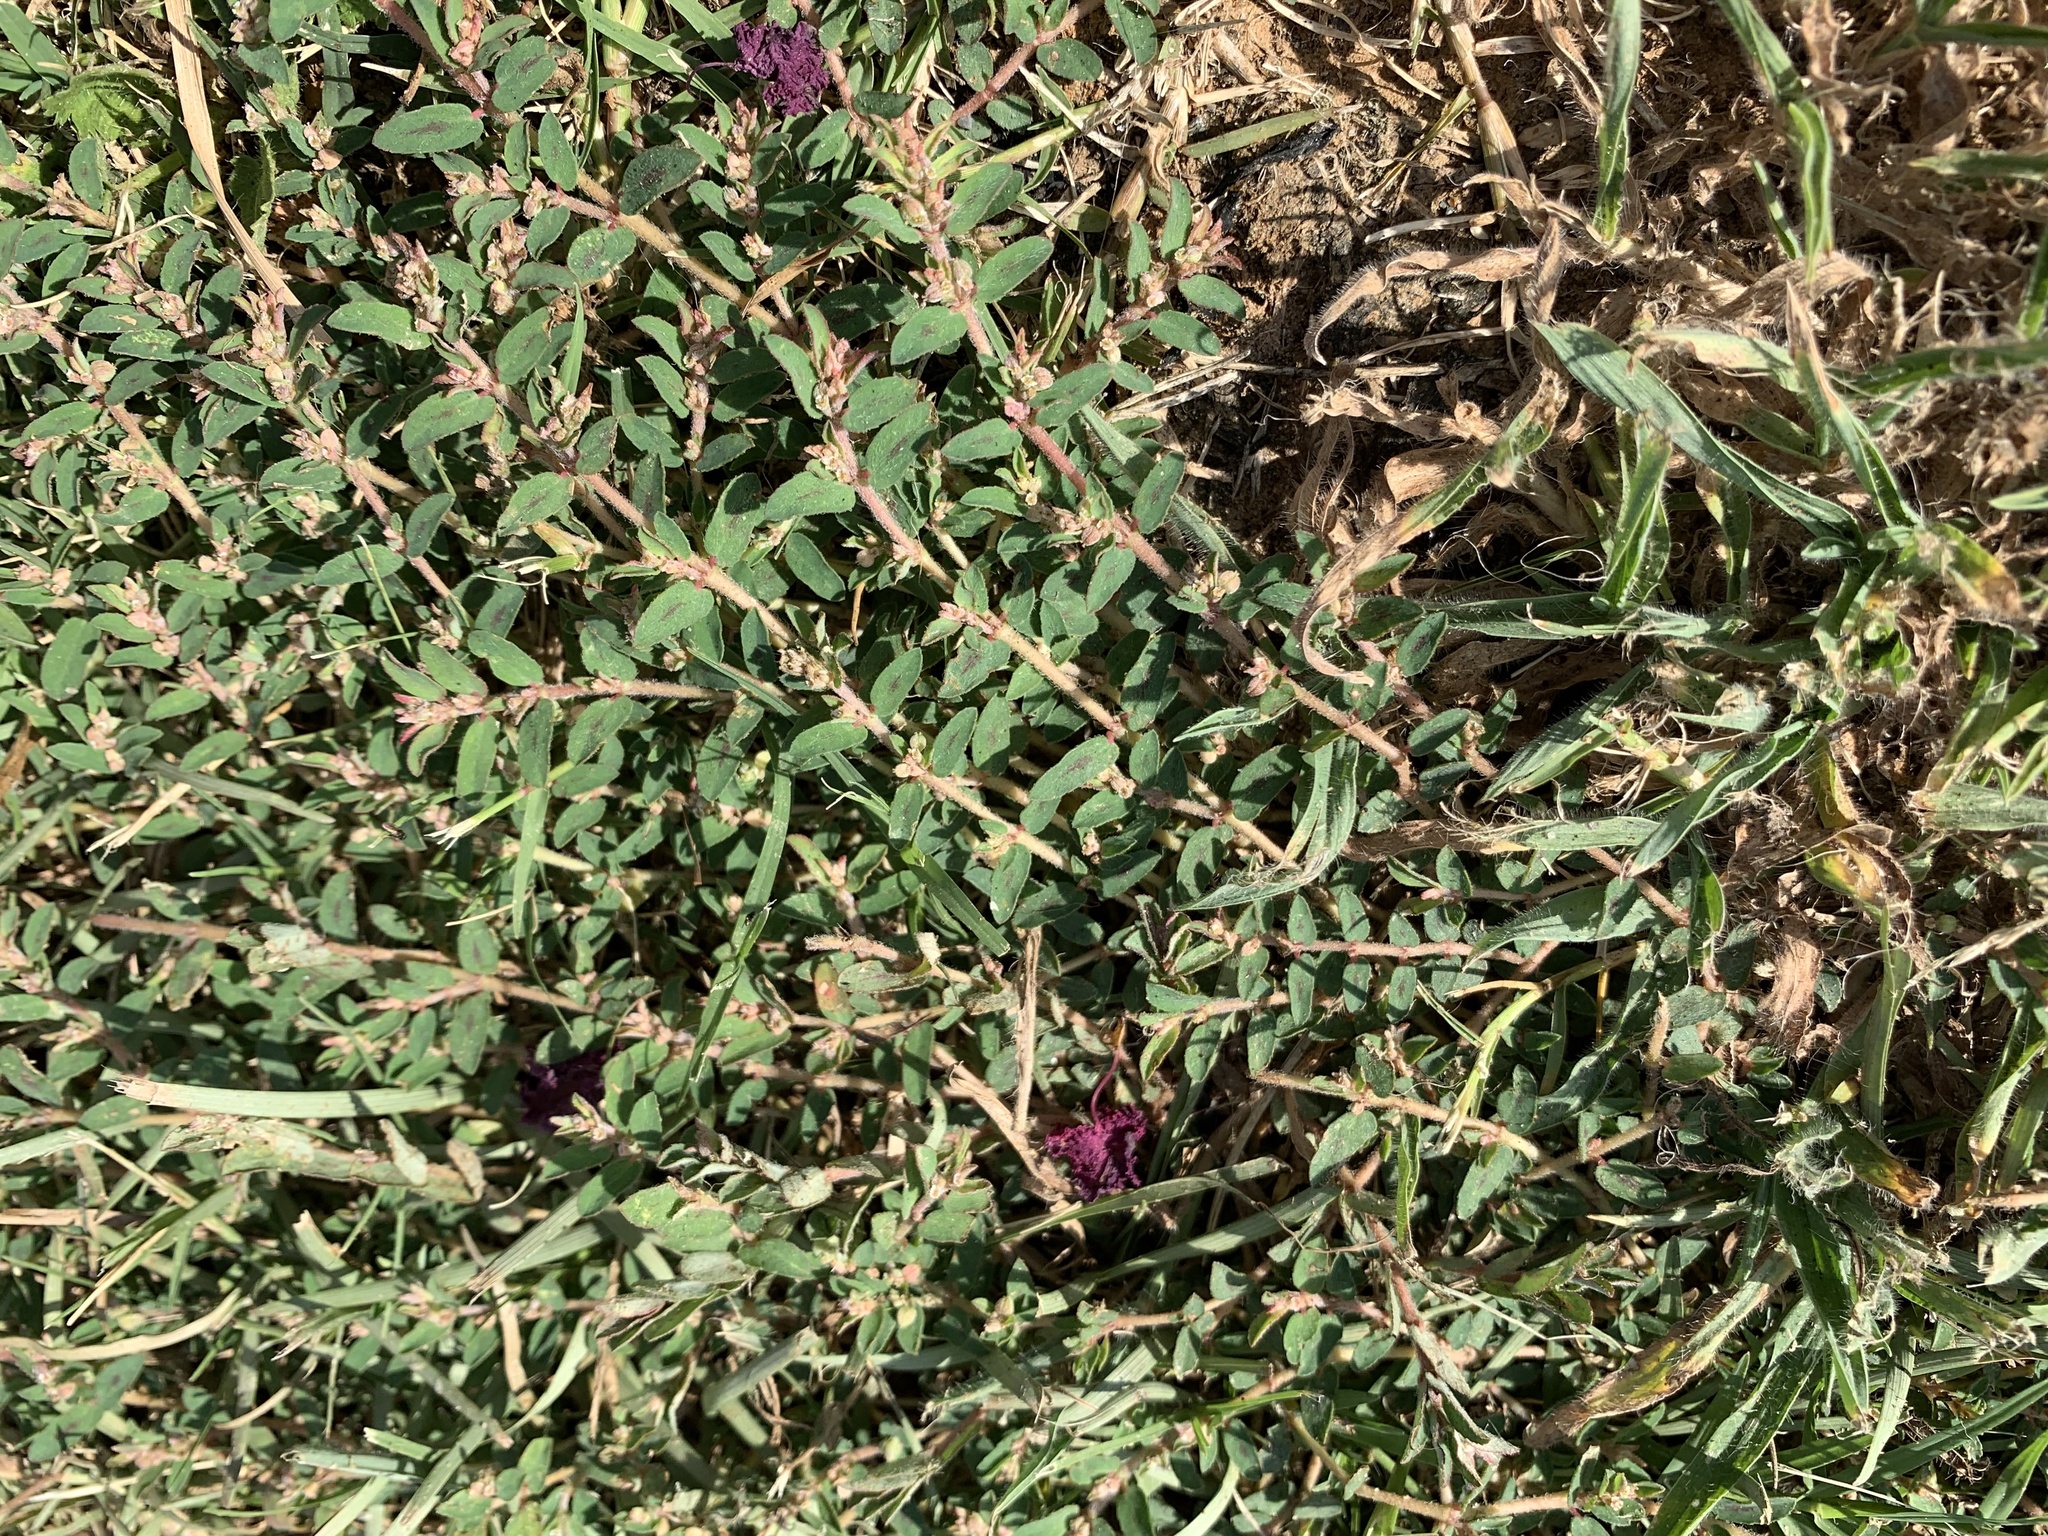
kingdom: Plantae
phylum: Tracheophyta
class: Magnoliopsida
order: Malpighiales
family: Euphorbiaceae
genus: Euphorbia
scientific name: Euphorbia maculata
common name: Spotted spurge
